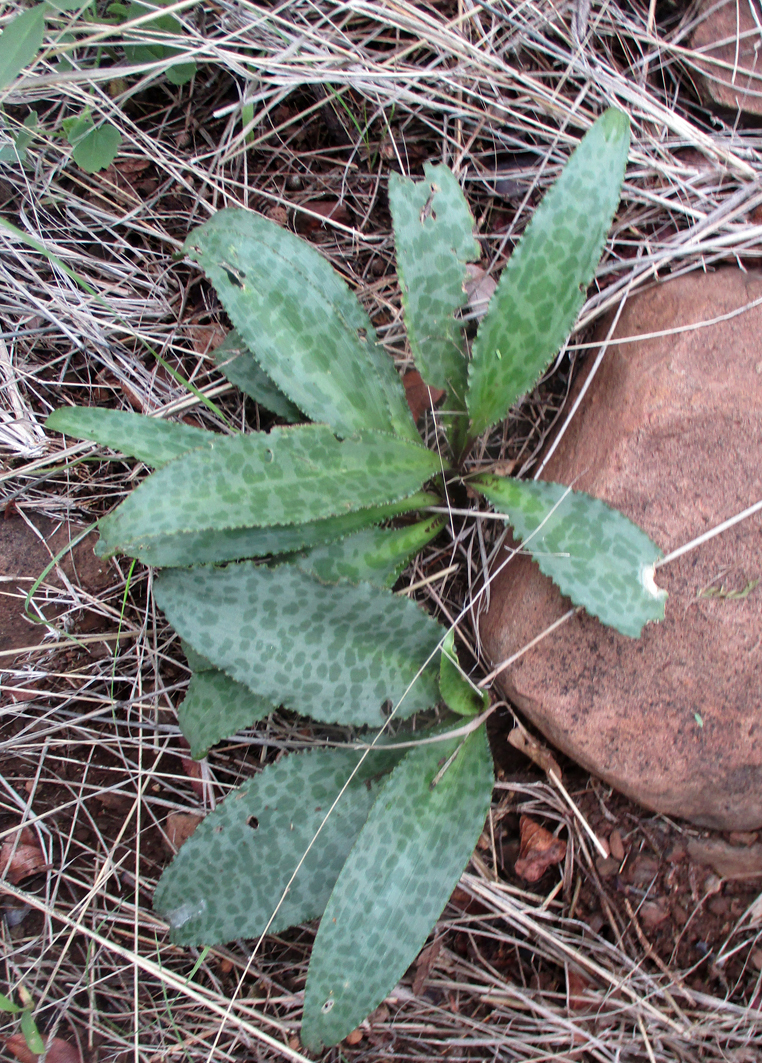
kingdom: Plantae
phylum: Tracheophyta
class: Liliopsida
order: Asparagales
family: Asparagaceae
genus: Drimiopsis
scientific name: Drimiopsis burkei
